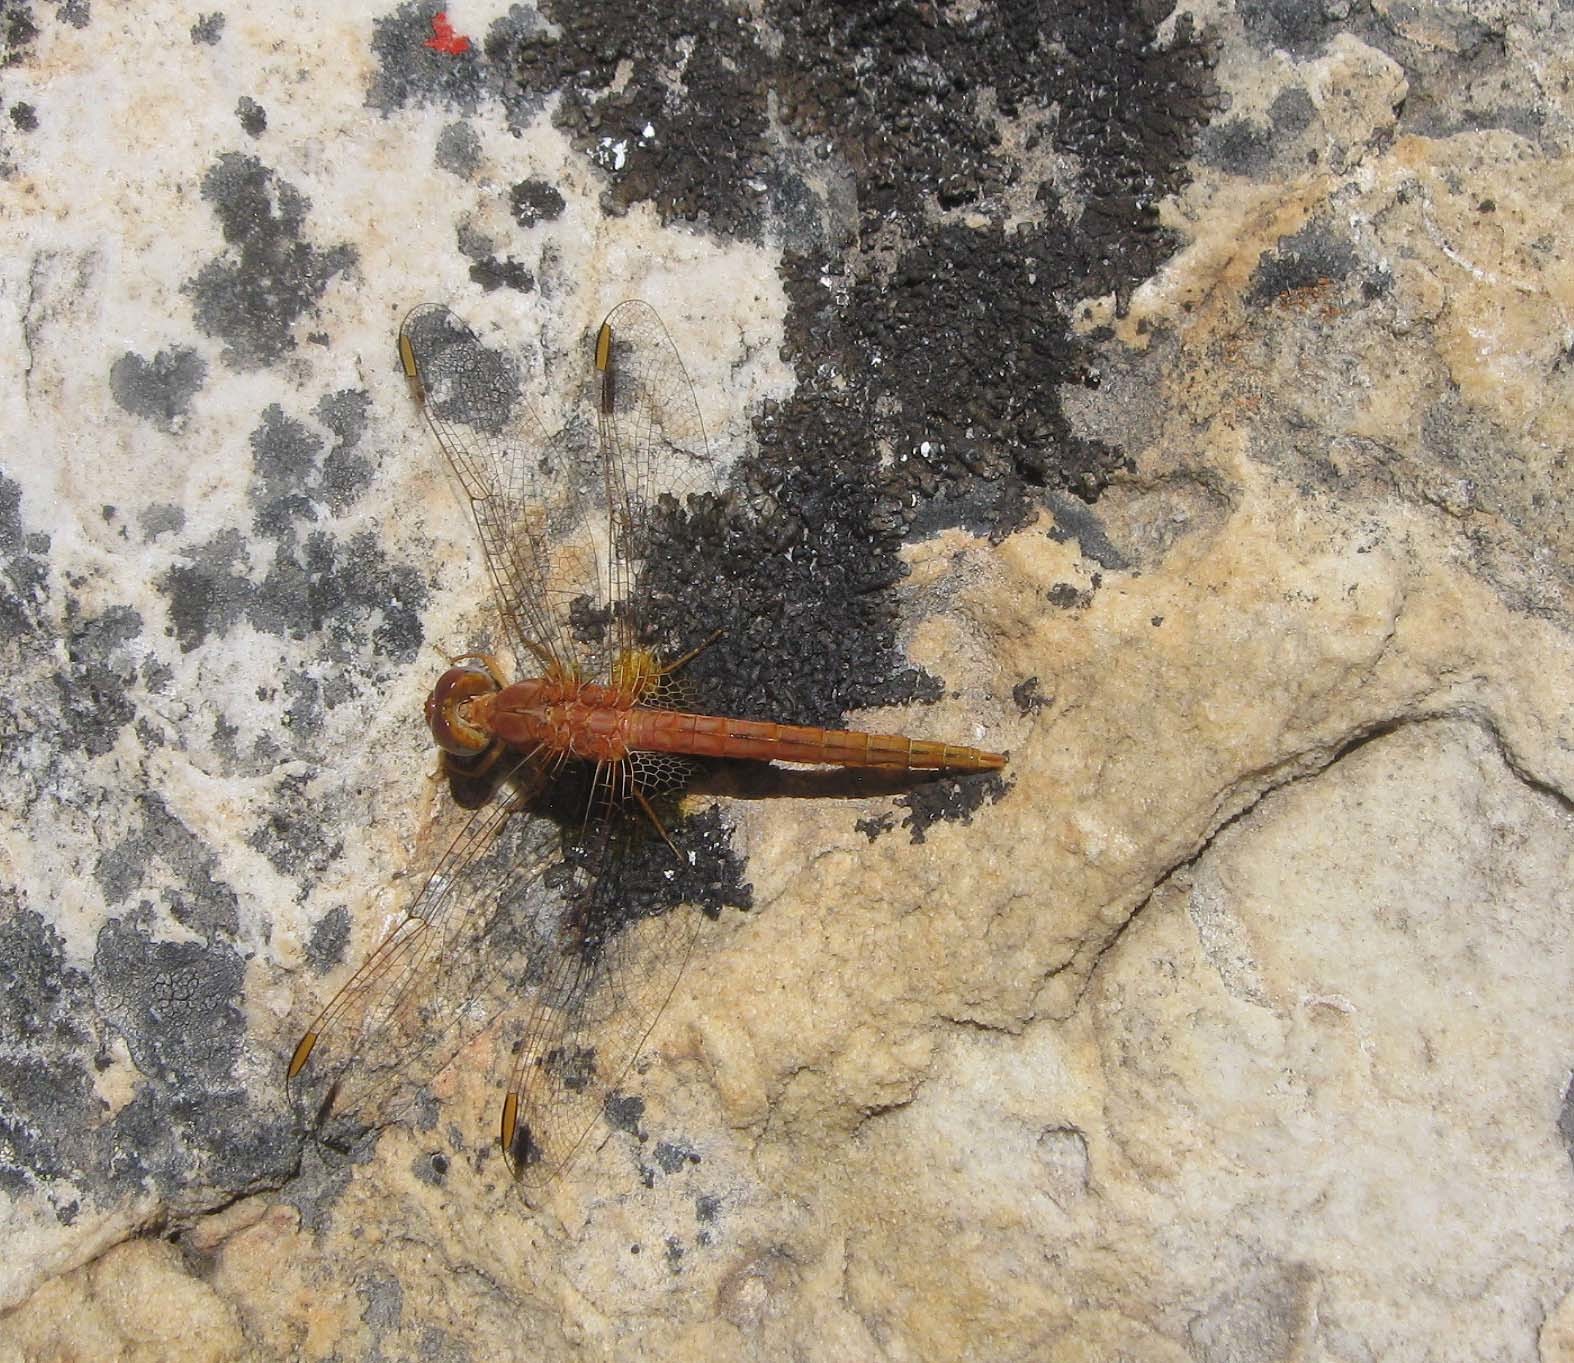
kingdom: Animalia
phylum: Arthropoda
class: Insecta
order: Odonata
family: Libellulidae
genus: Crocothemis
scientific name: Crocothemis sanguinolenta
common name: Little scarlet
